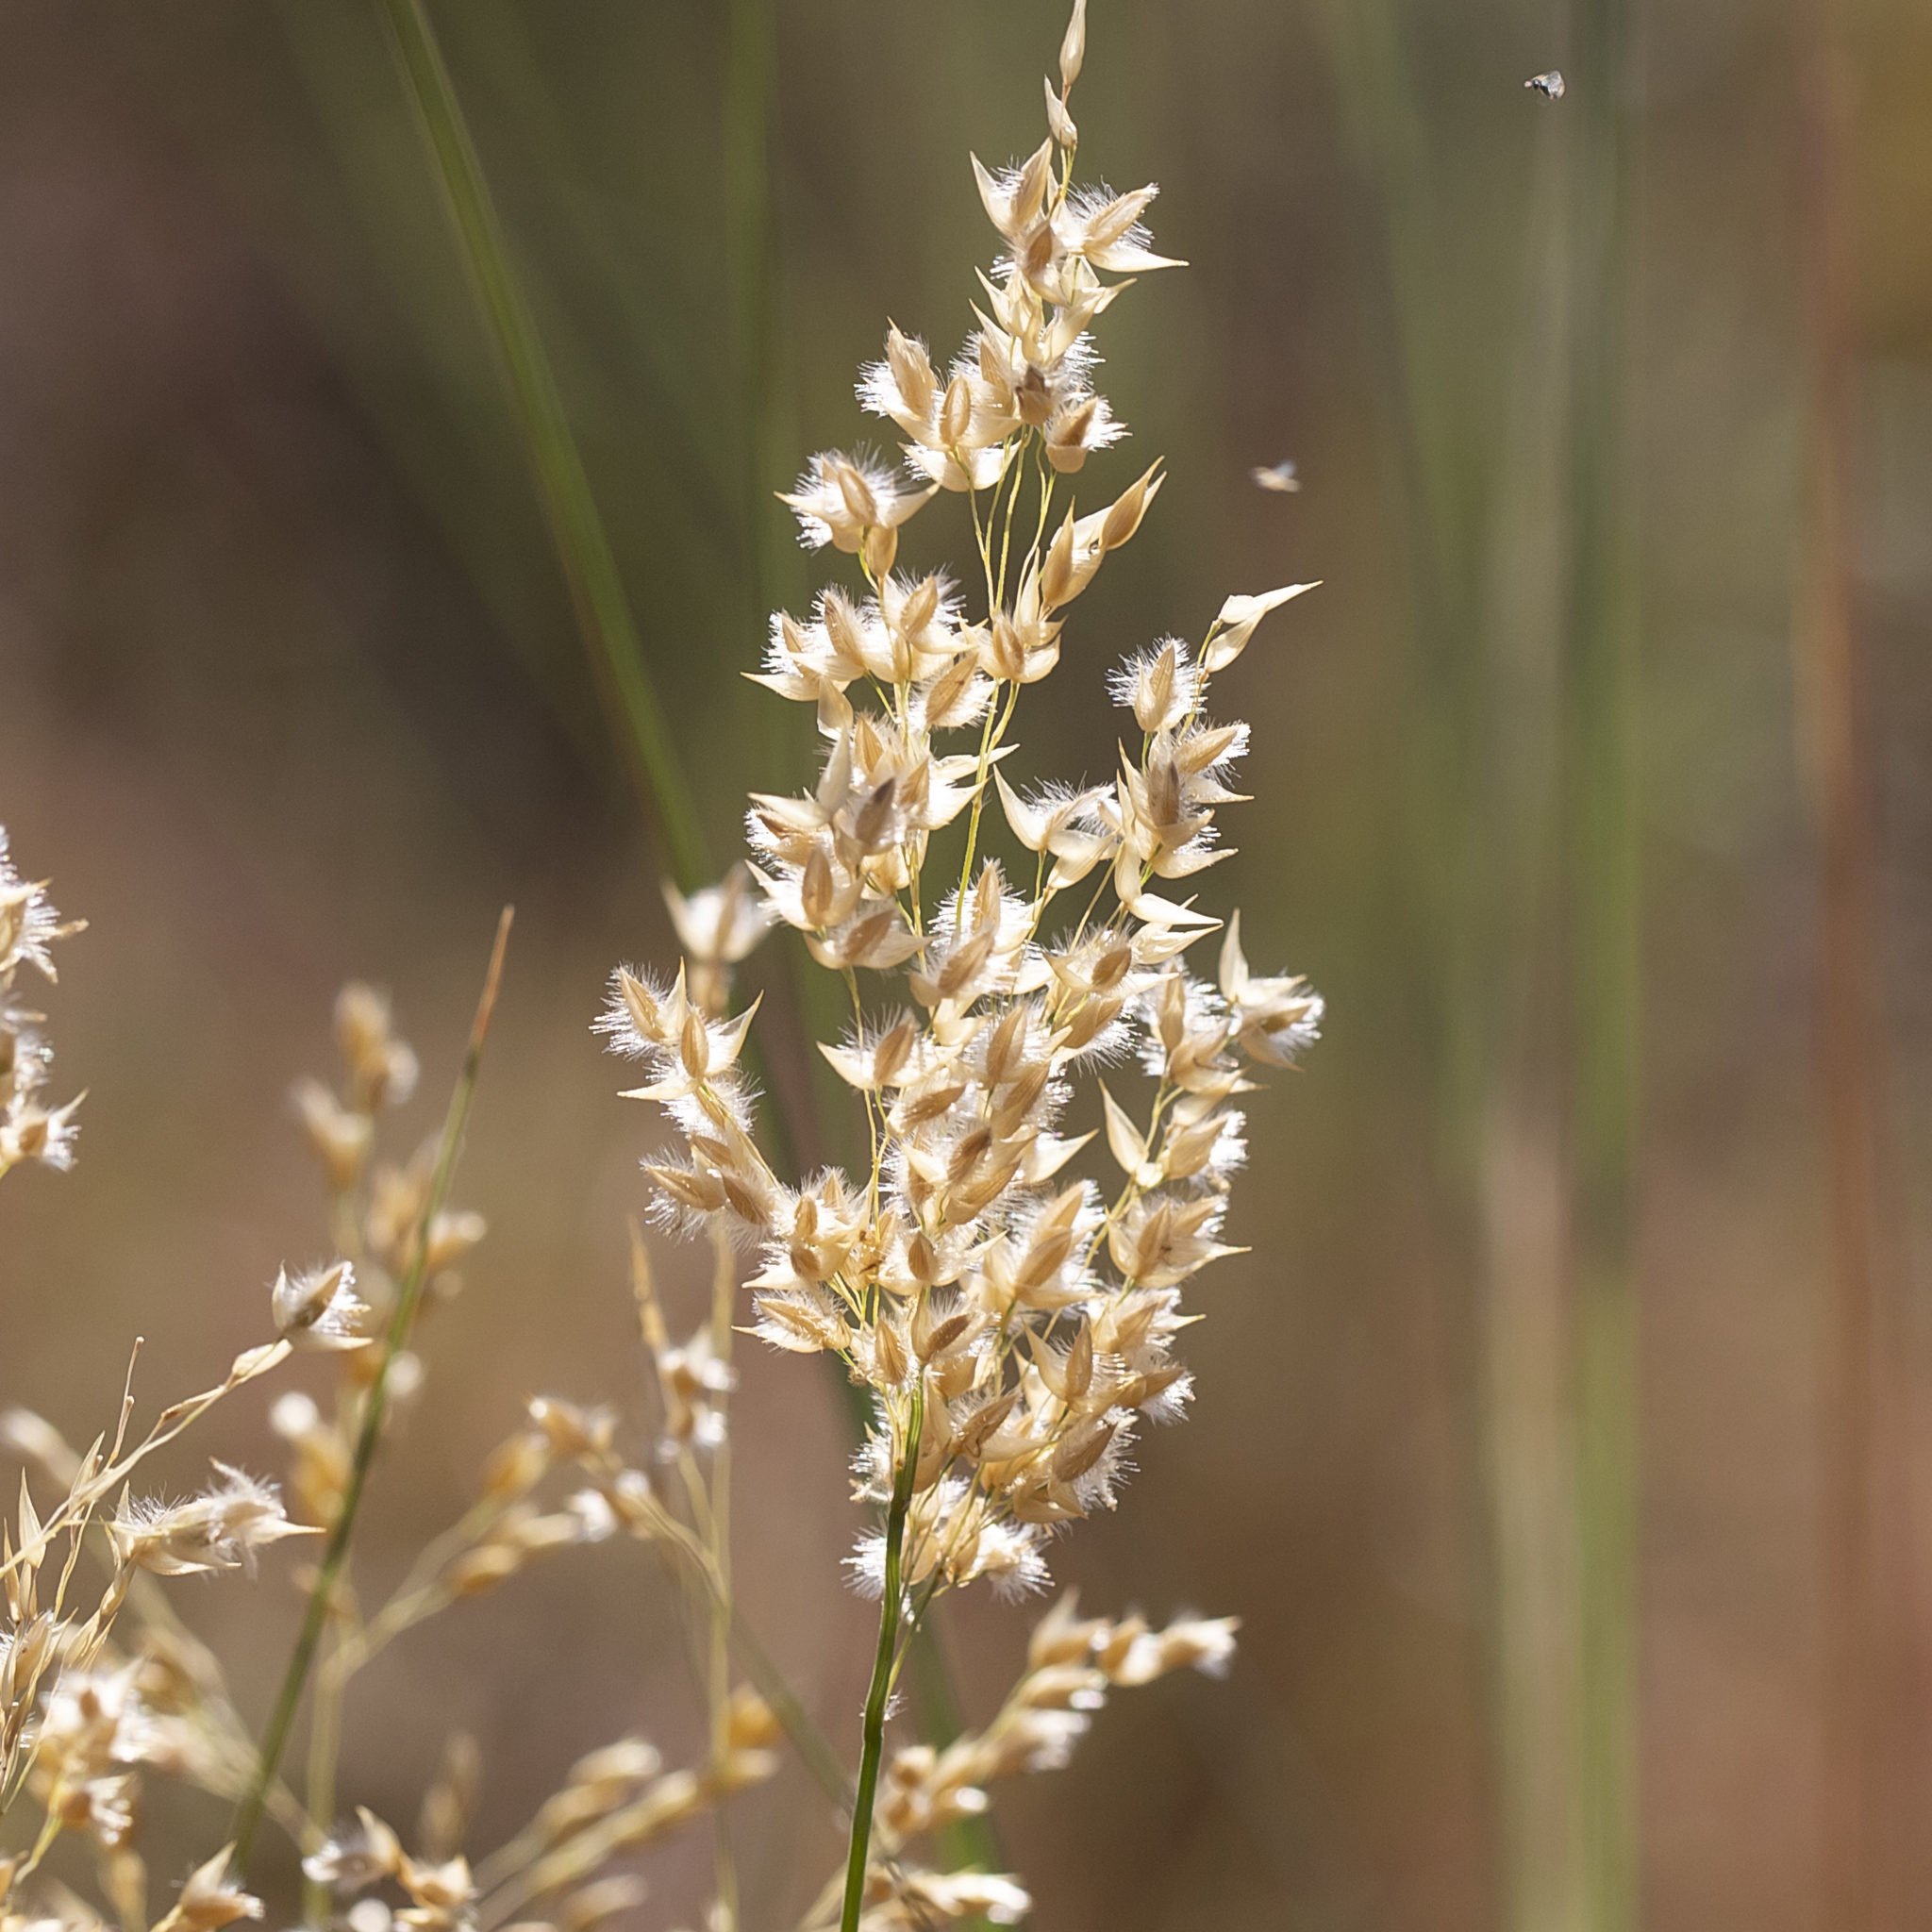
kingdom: Plantae
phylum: Tracheophyta
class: Liliopsida
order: Poales
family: Poaceae
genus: Eriachne
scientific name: Eriachne obtusa
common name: Northern wanderrie grass
